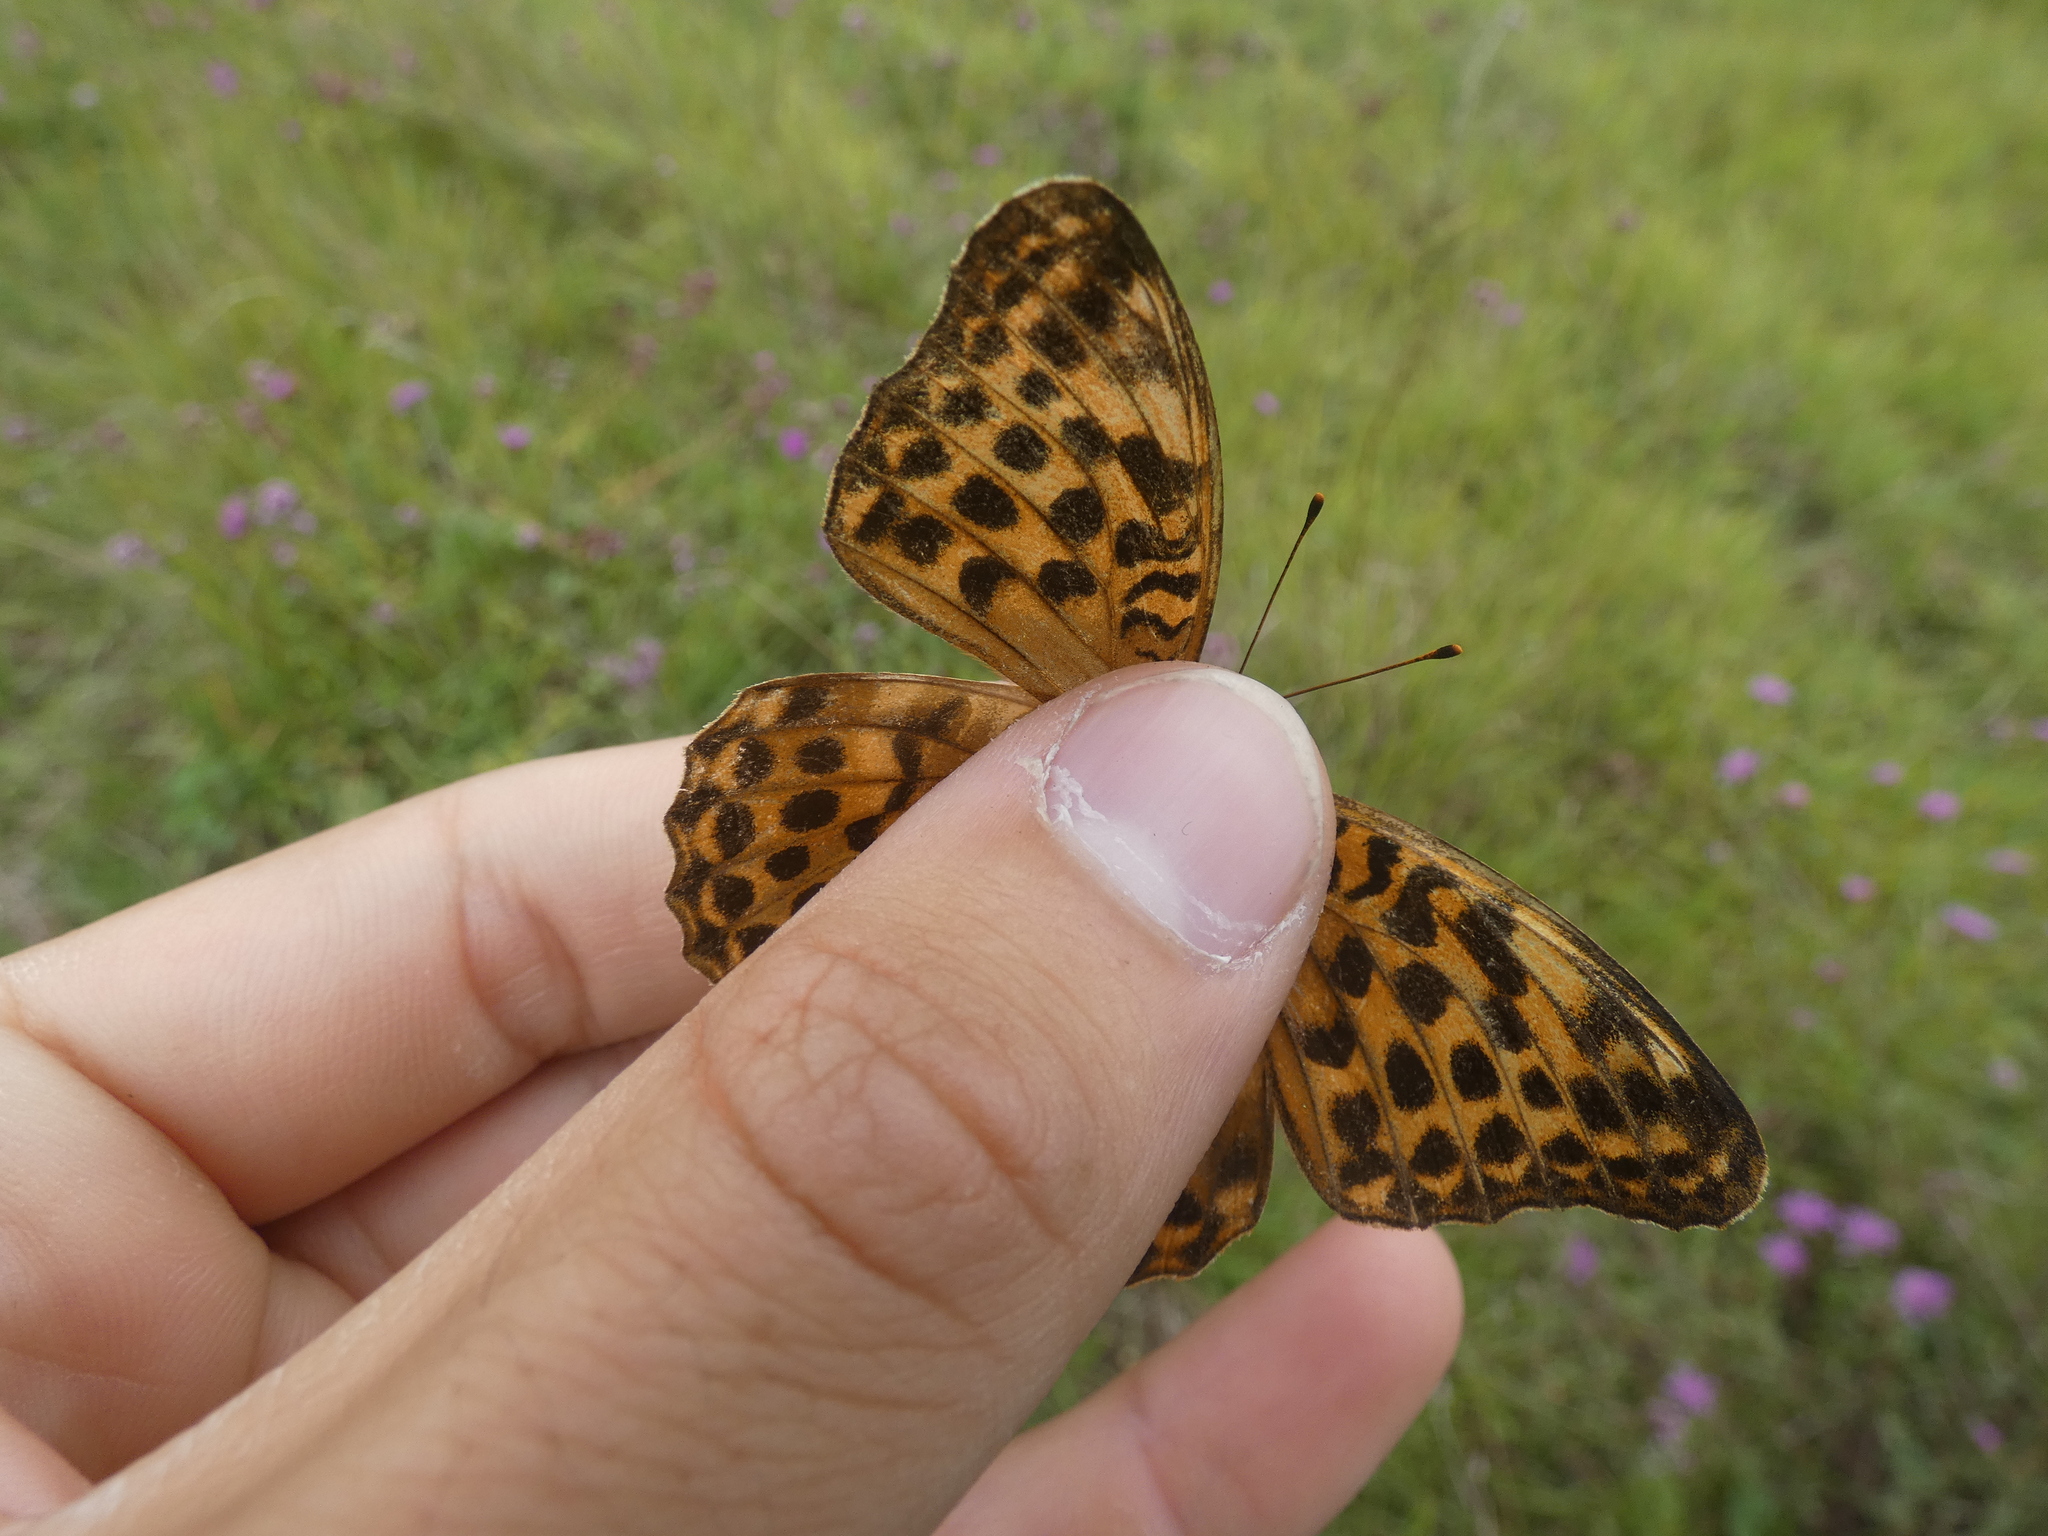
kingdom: Animalia
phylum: Arthropoda
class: Insecta
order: Lepidoptera
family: Nymphalidae
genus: Argynnis
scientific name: Argynnis paphia
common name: Silver-washed fritillary
